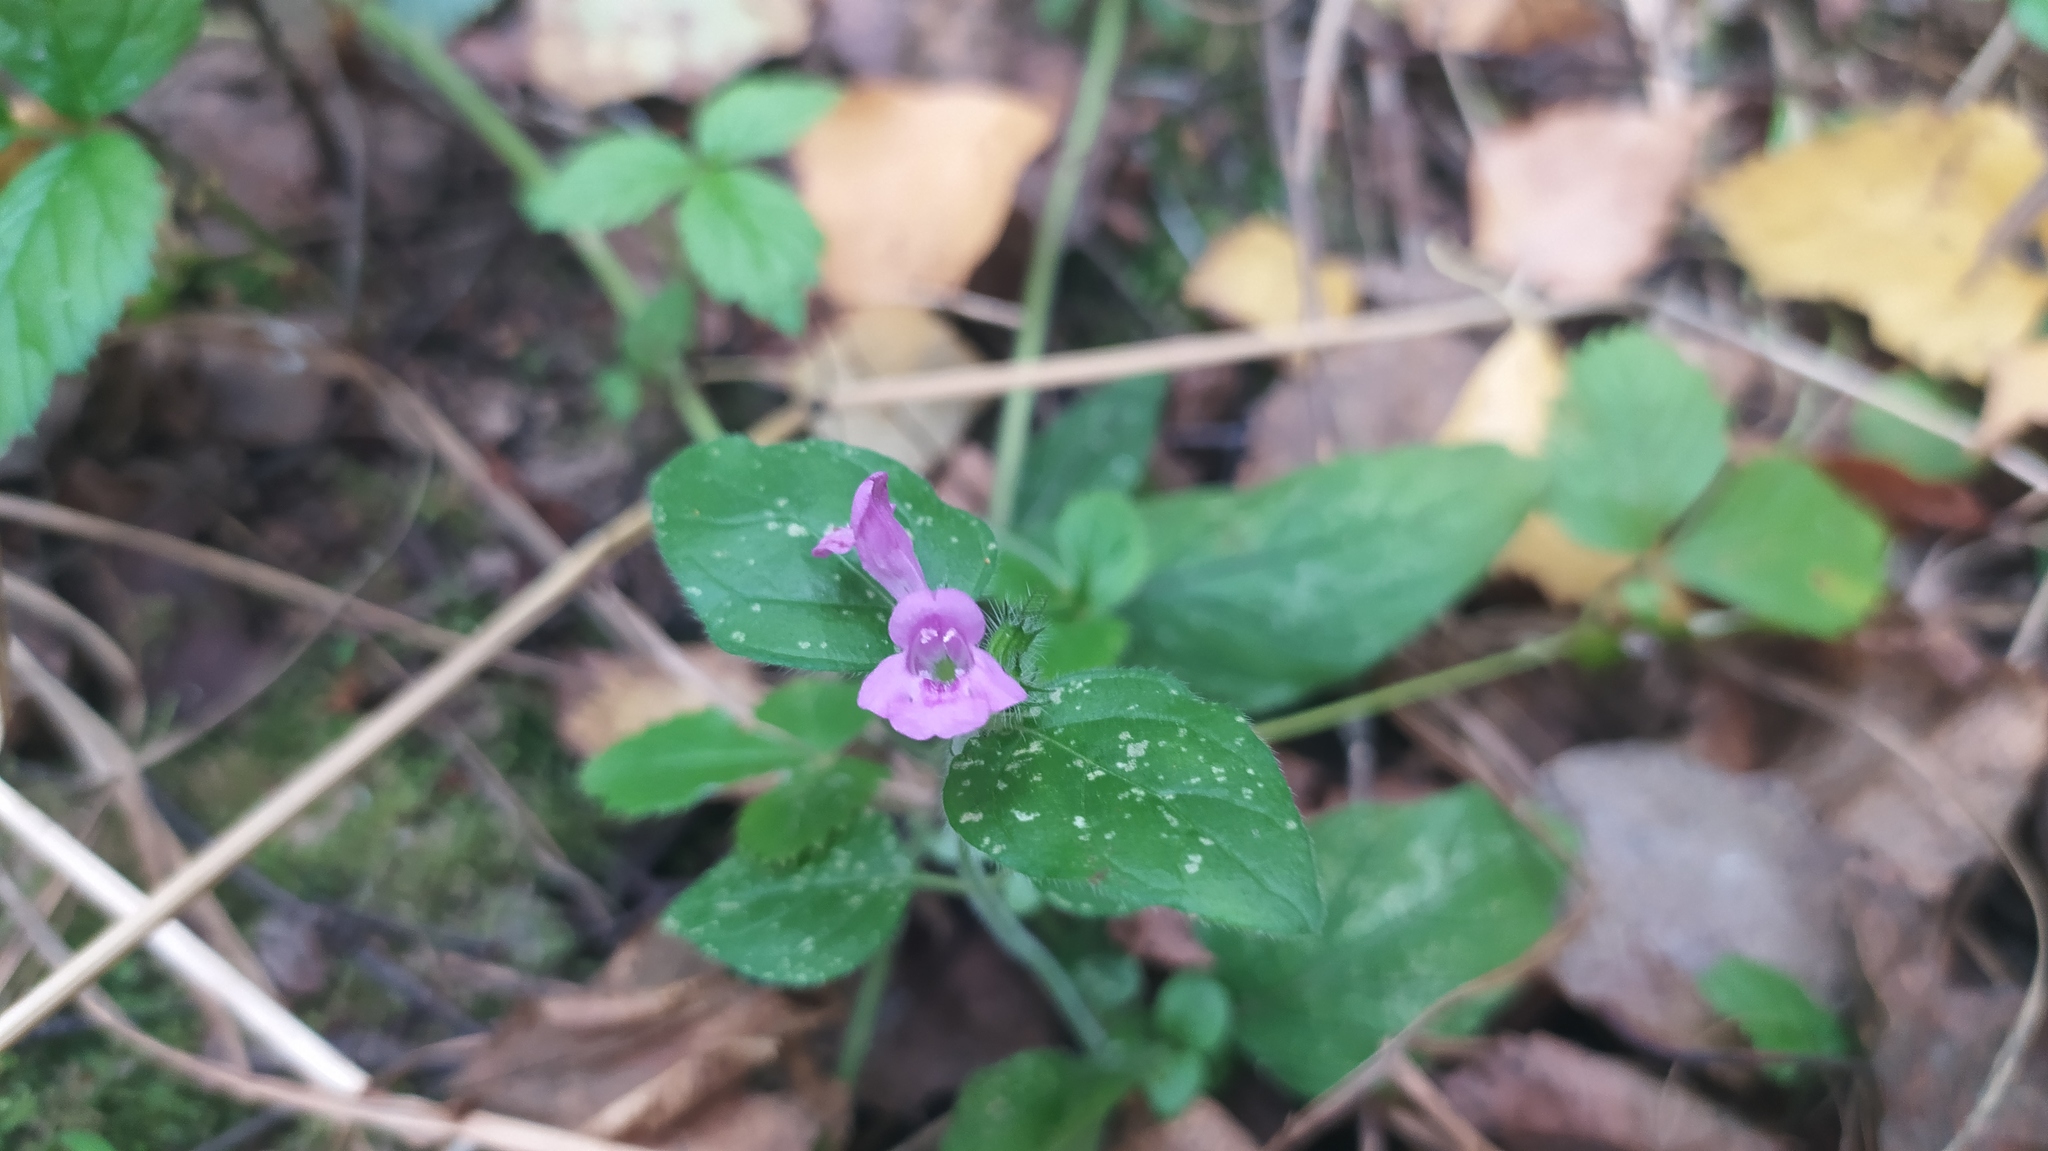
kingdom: Plantae
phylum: Tracheophyta
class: Magnoliopsida
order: Lamiales
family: Lamiaceae
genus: Clinopodium
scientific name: Clinopodium vulgare
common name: Wild basil
